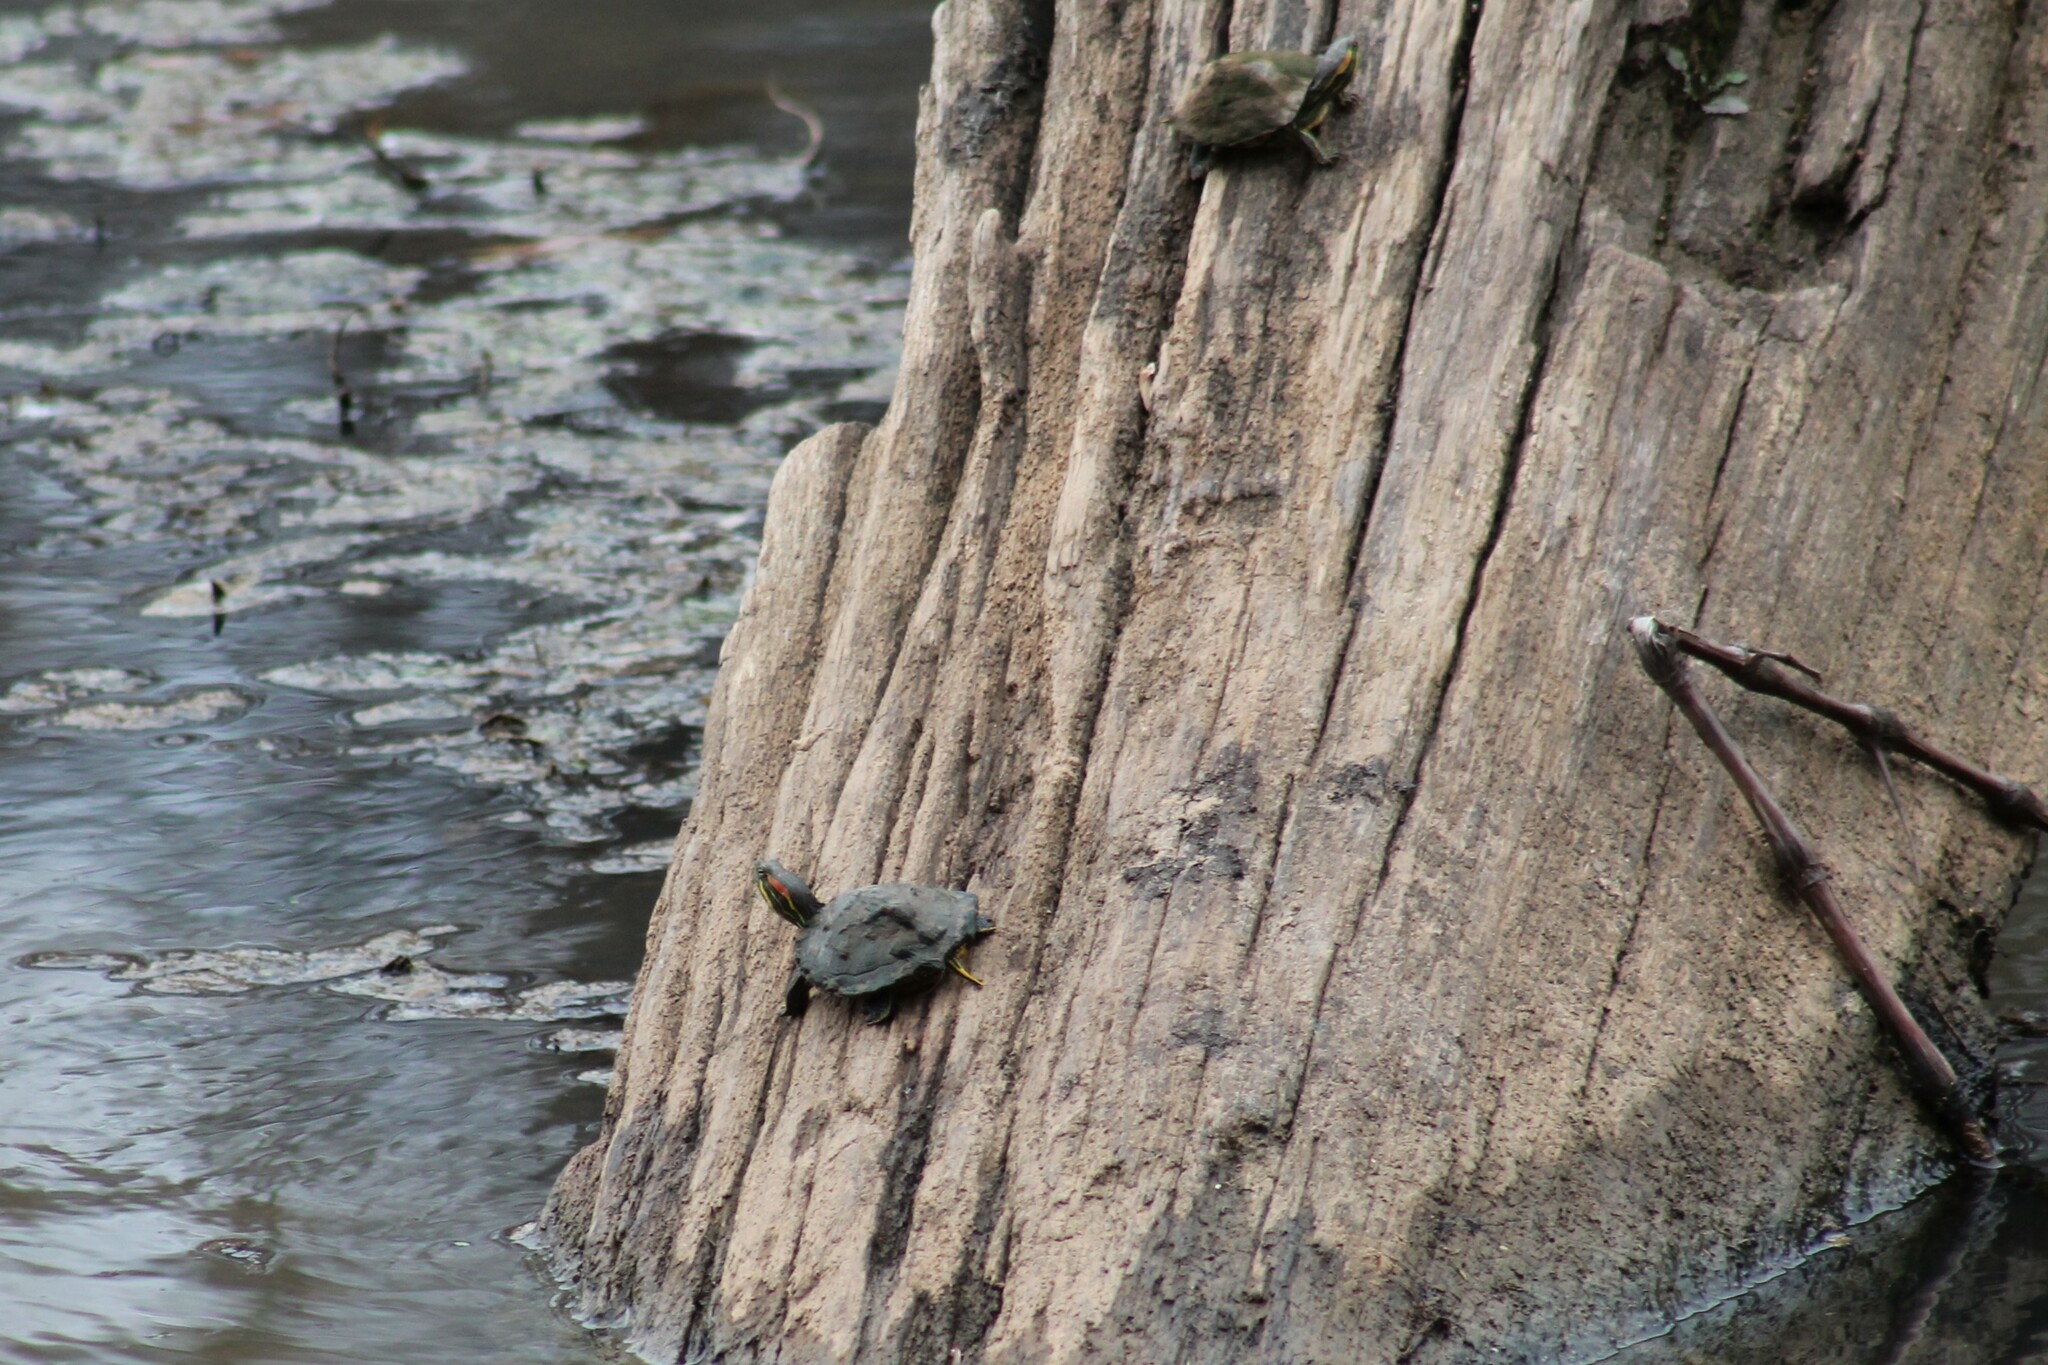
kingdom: Animalia
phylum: Chordata
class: Testudines
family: Emydidae
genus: Trachemys
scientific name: Trachemys scripta
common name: Slider
